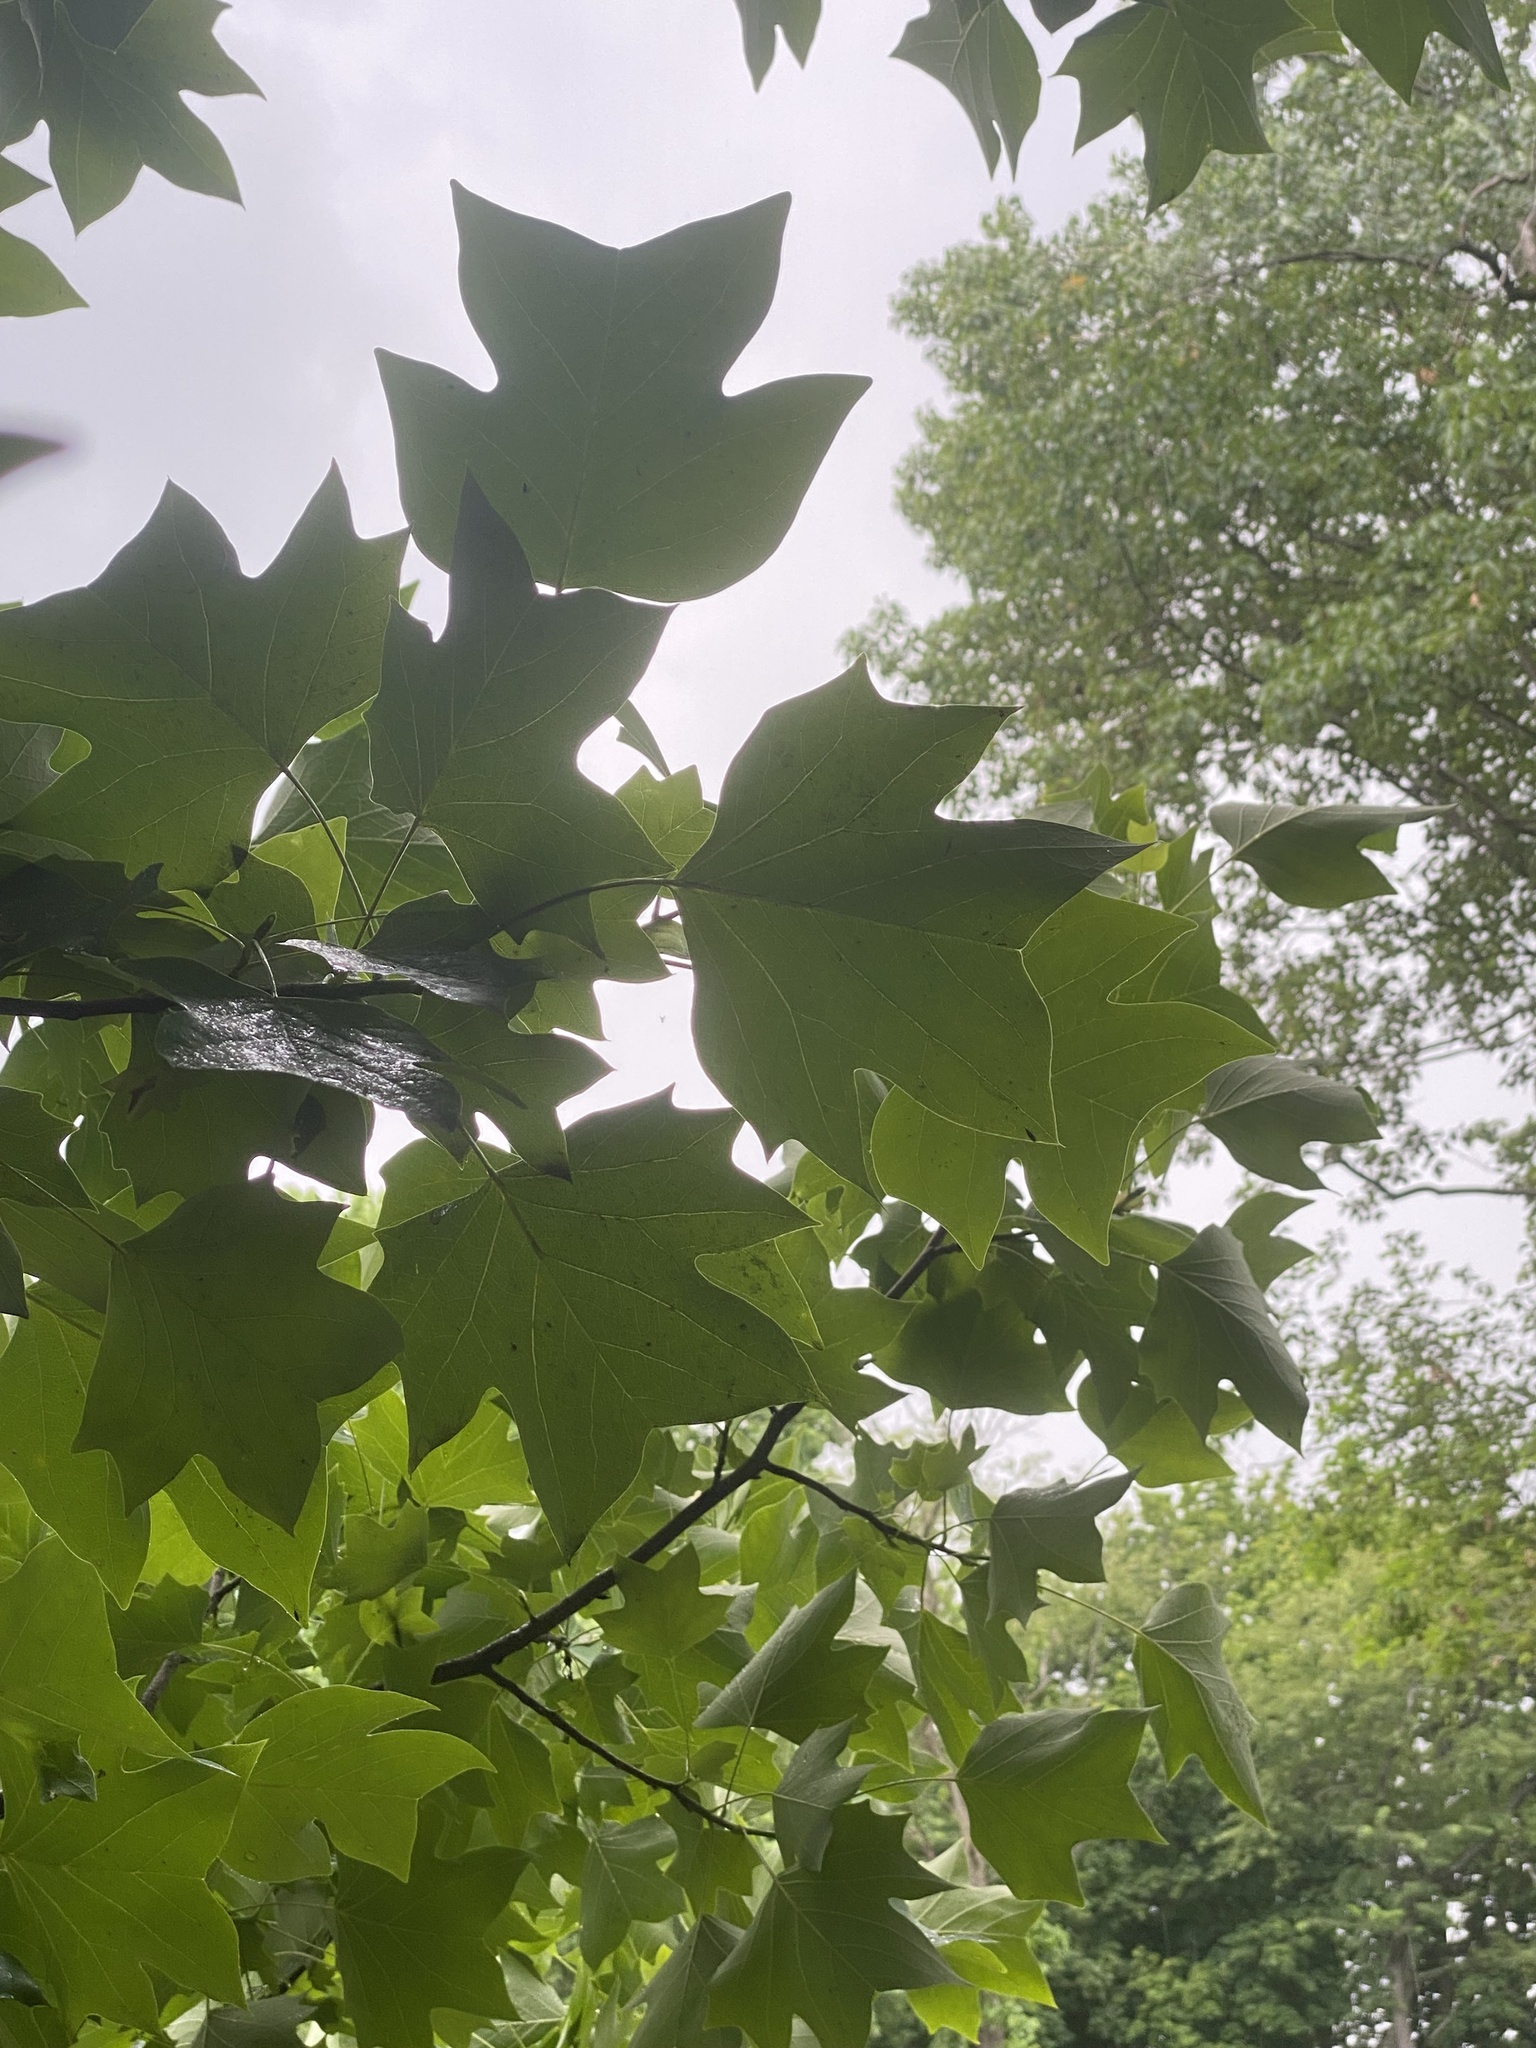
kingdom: Plantae
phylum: Tracheophyta
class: Magnoliopsida
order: Magnoliales
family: Magnoliaceae
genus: Liriodendron
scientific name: Liriodendron tulipifera
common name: Tulip tree
